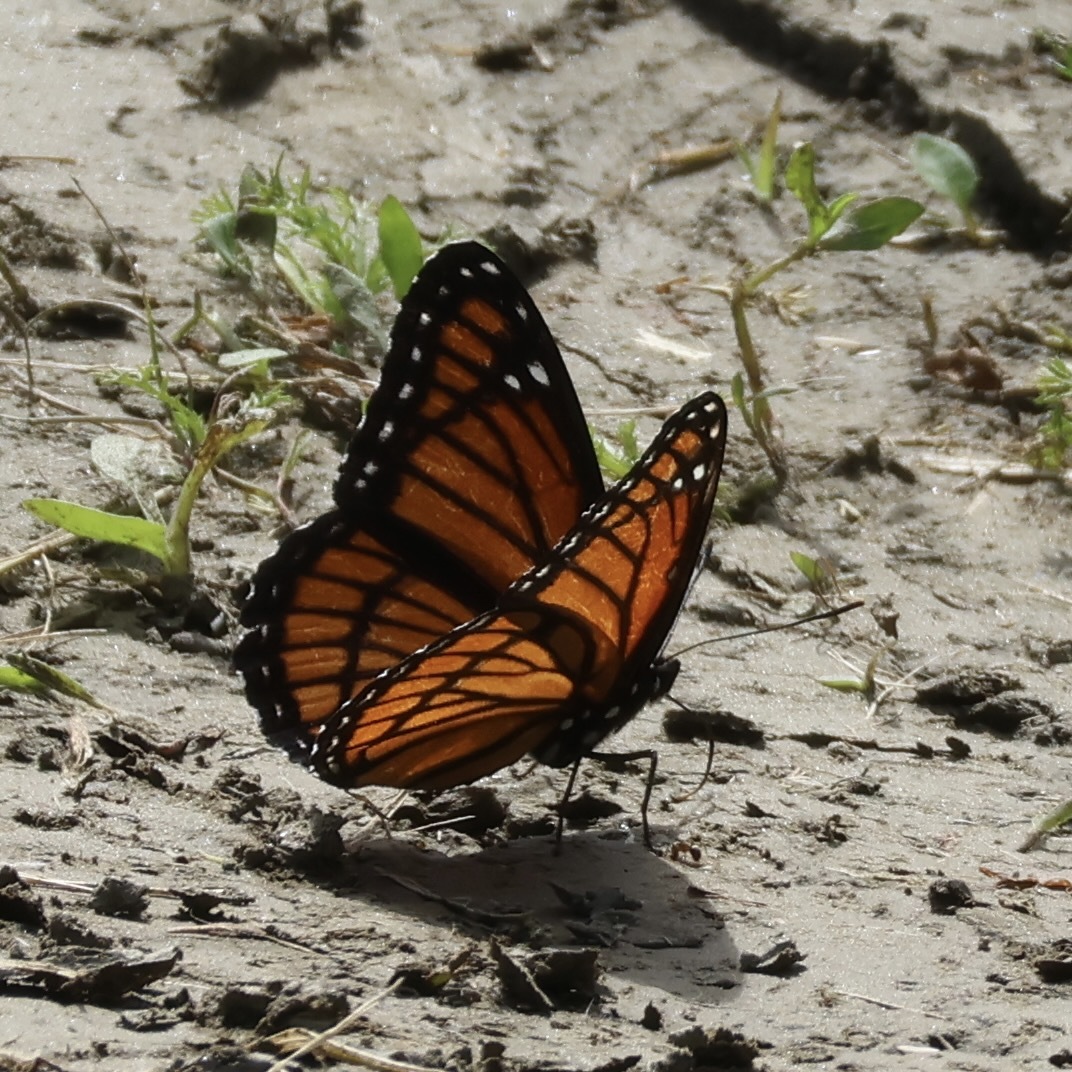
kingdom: Animalia
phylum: Arthropoda
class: Insecta
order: Lepidoptera
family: Nymphalidae
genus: Limenitis
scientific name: Limenitis archippus
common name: Viceroy
